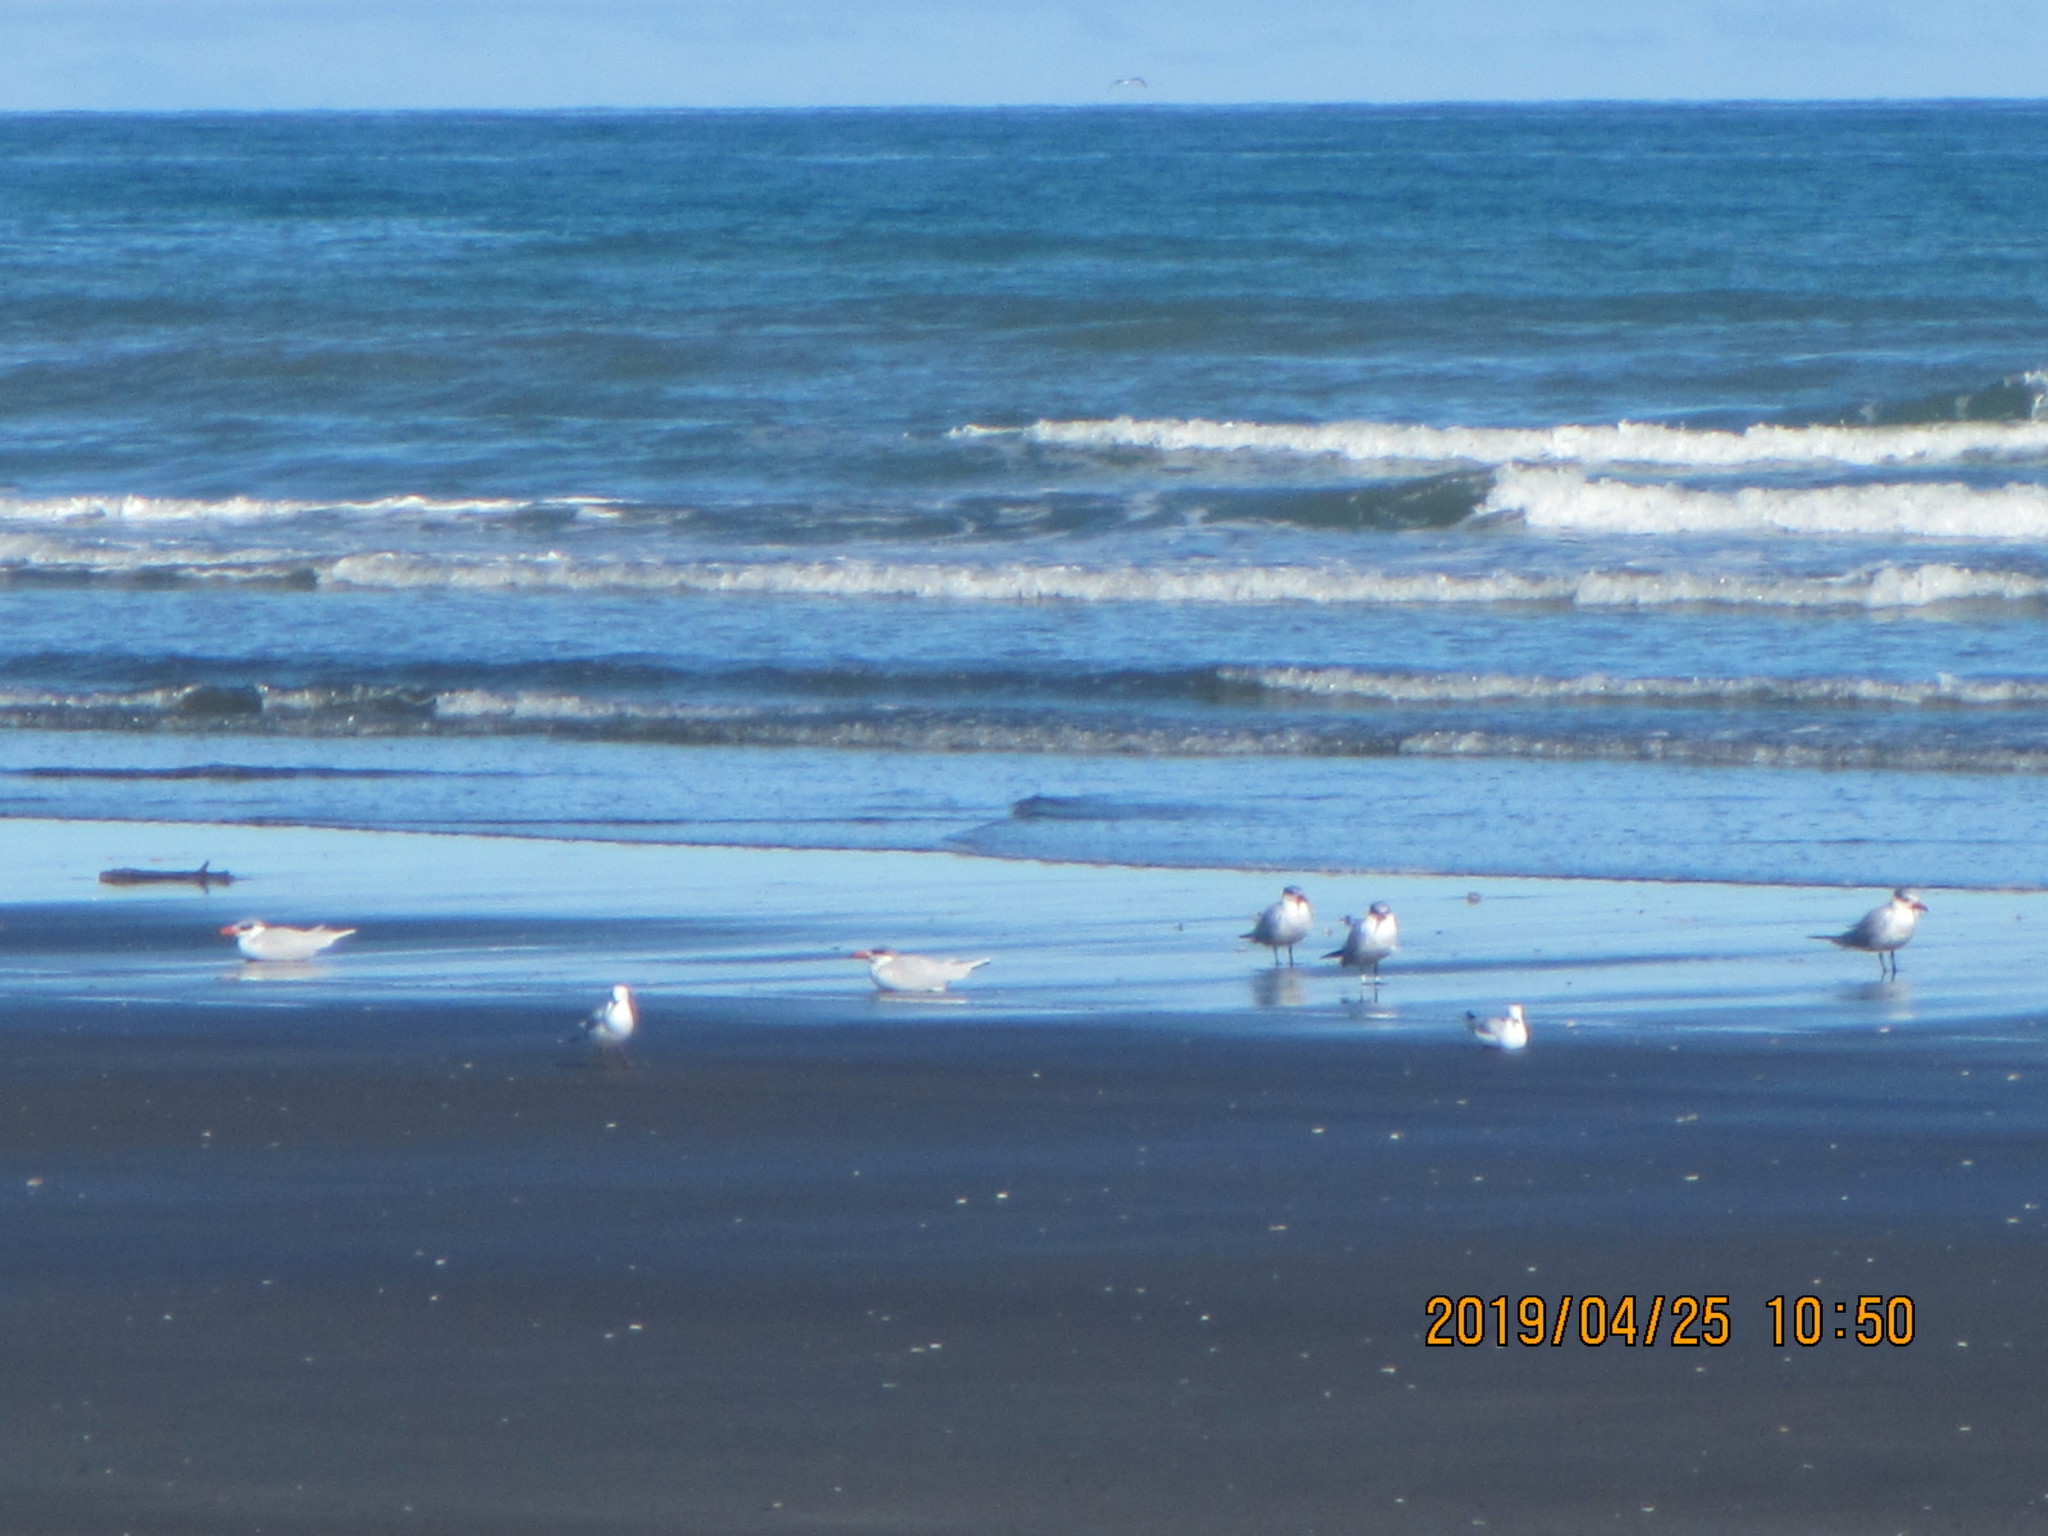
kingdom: Animalia
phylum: Chordata
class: Aves
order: Charadriiformes
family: Laridae
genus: Hydroprogne
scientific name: Hydroprogne caspia
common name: Caspian tern
